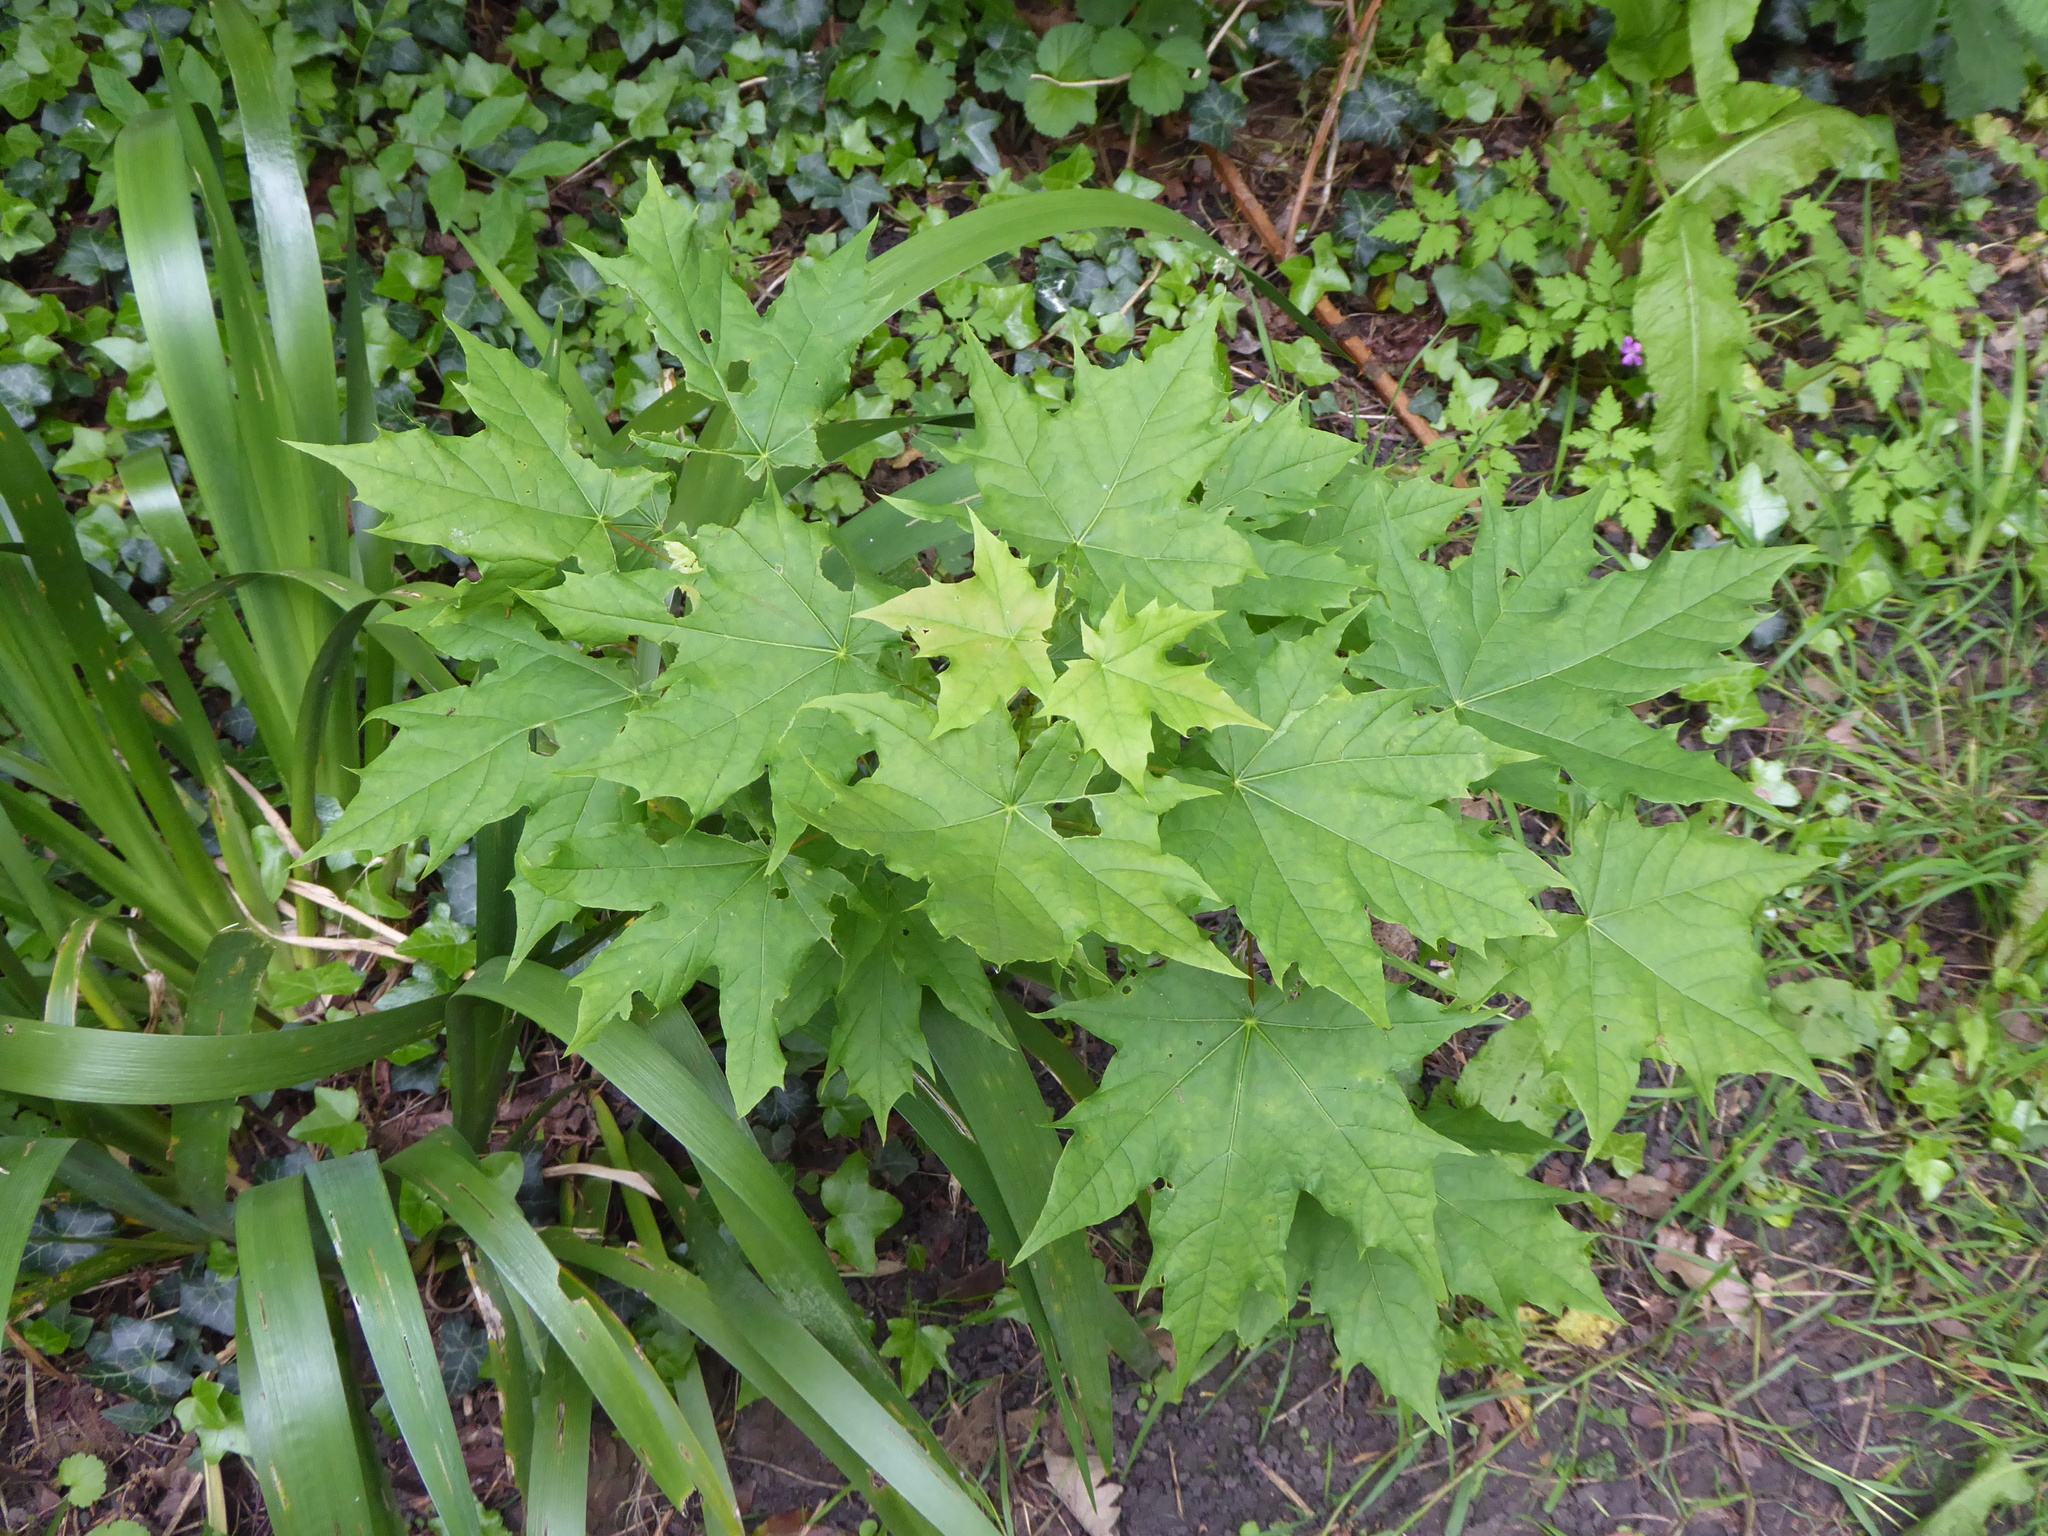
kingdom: Plantae
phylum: Tracheophyta
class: Magnoliopsida
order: Sapindales
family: Sapindaceae
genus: Acer
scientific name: Acer platanoides
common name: Norway maple
